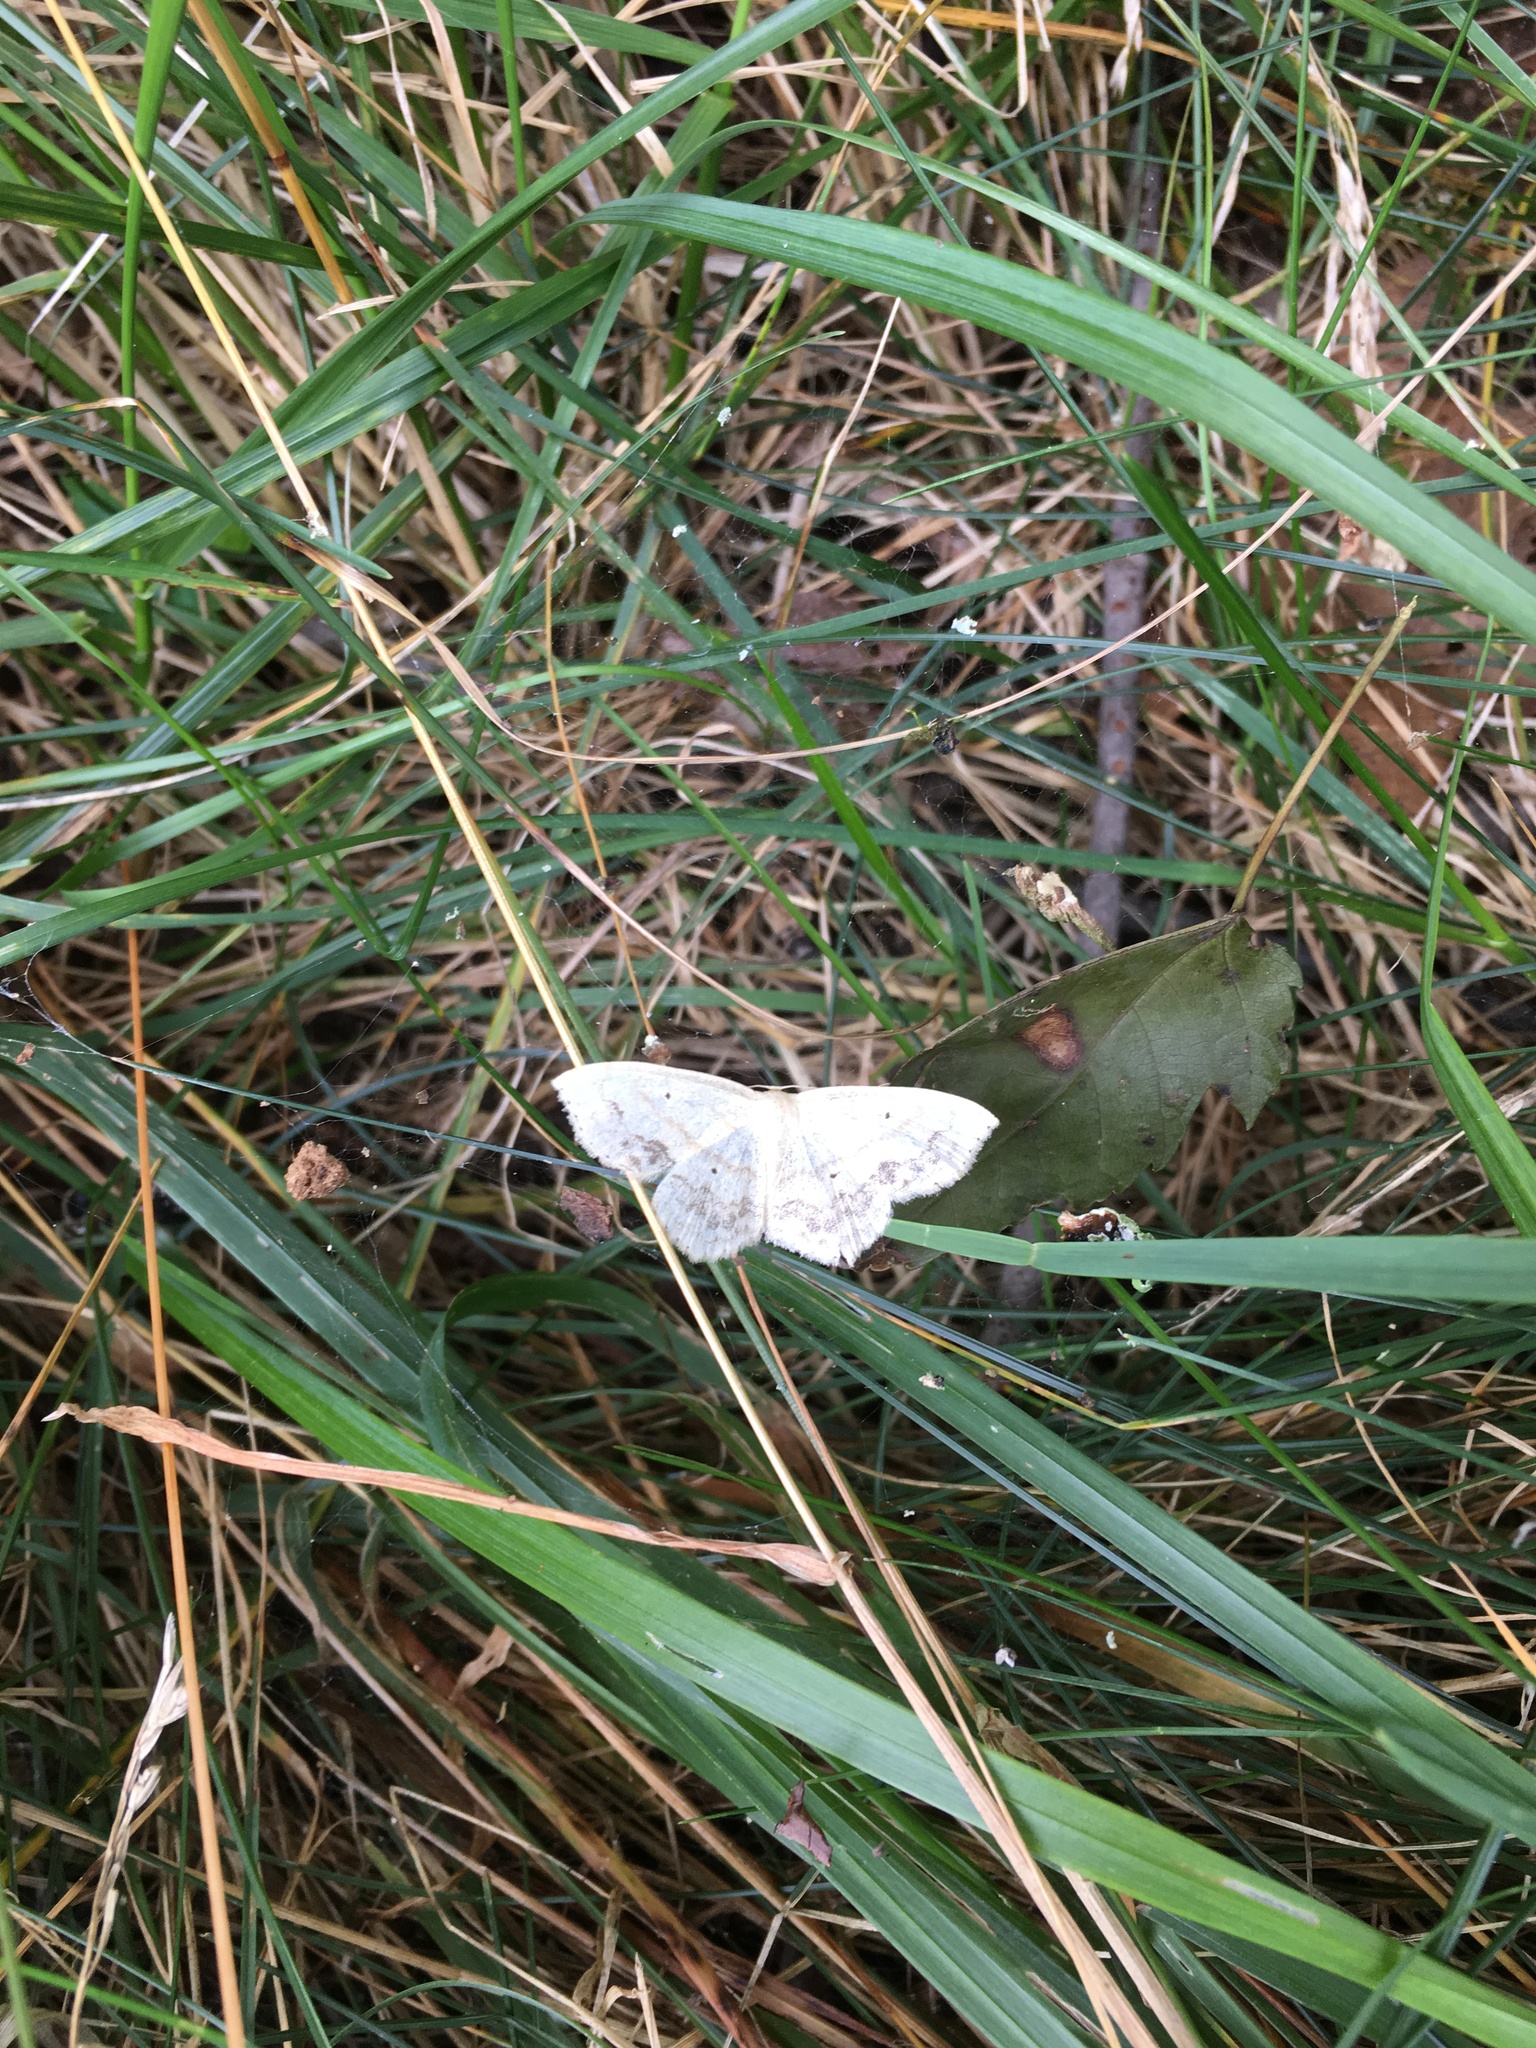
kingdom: Animalia
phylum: Arthropoda
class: Insecta
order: Lepidoptera
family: Geometridae
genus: Scopula
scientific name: Scopula limboundata
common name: Large lace border
